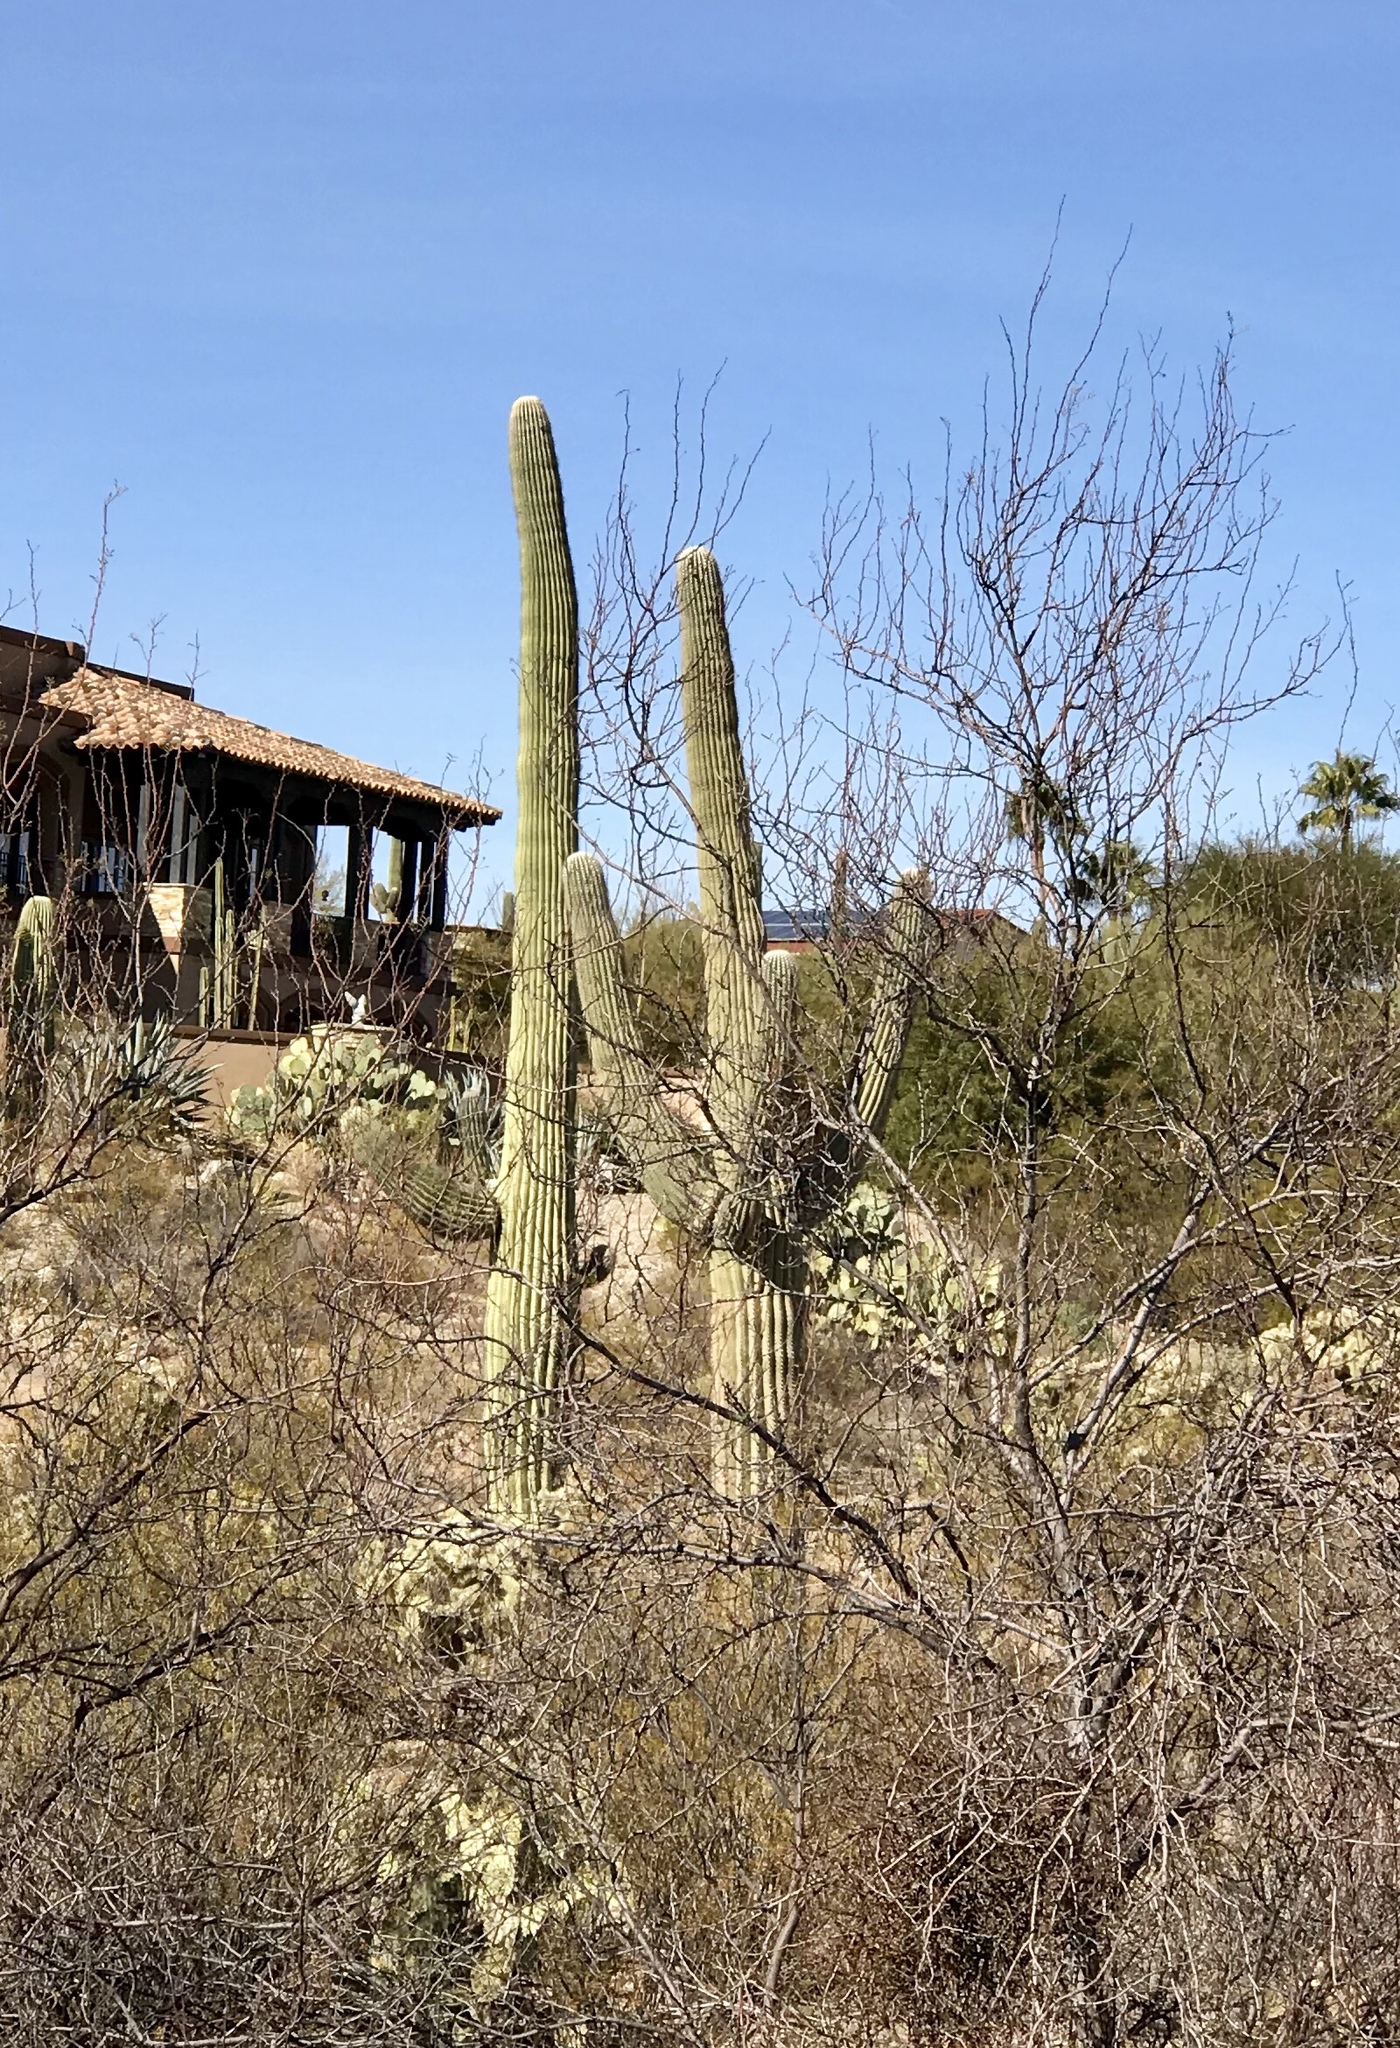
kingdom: Plantae
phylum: Tracheophyta
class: Magnoliopsida
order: Caryophyllales
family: Cactaceae
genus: Carnegiea
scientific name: Carnegiea gigantea
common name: Saguaro
